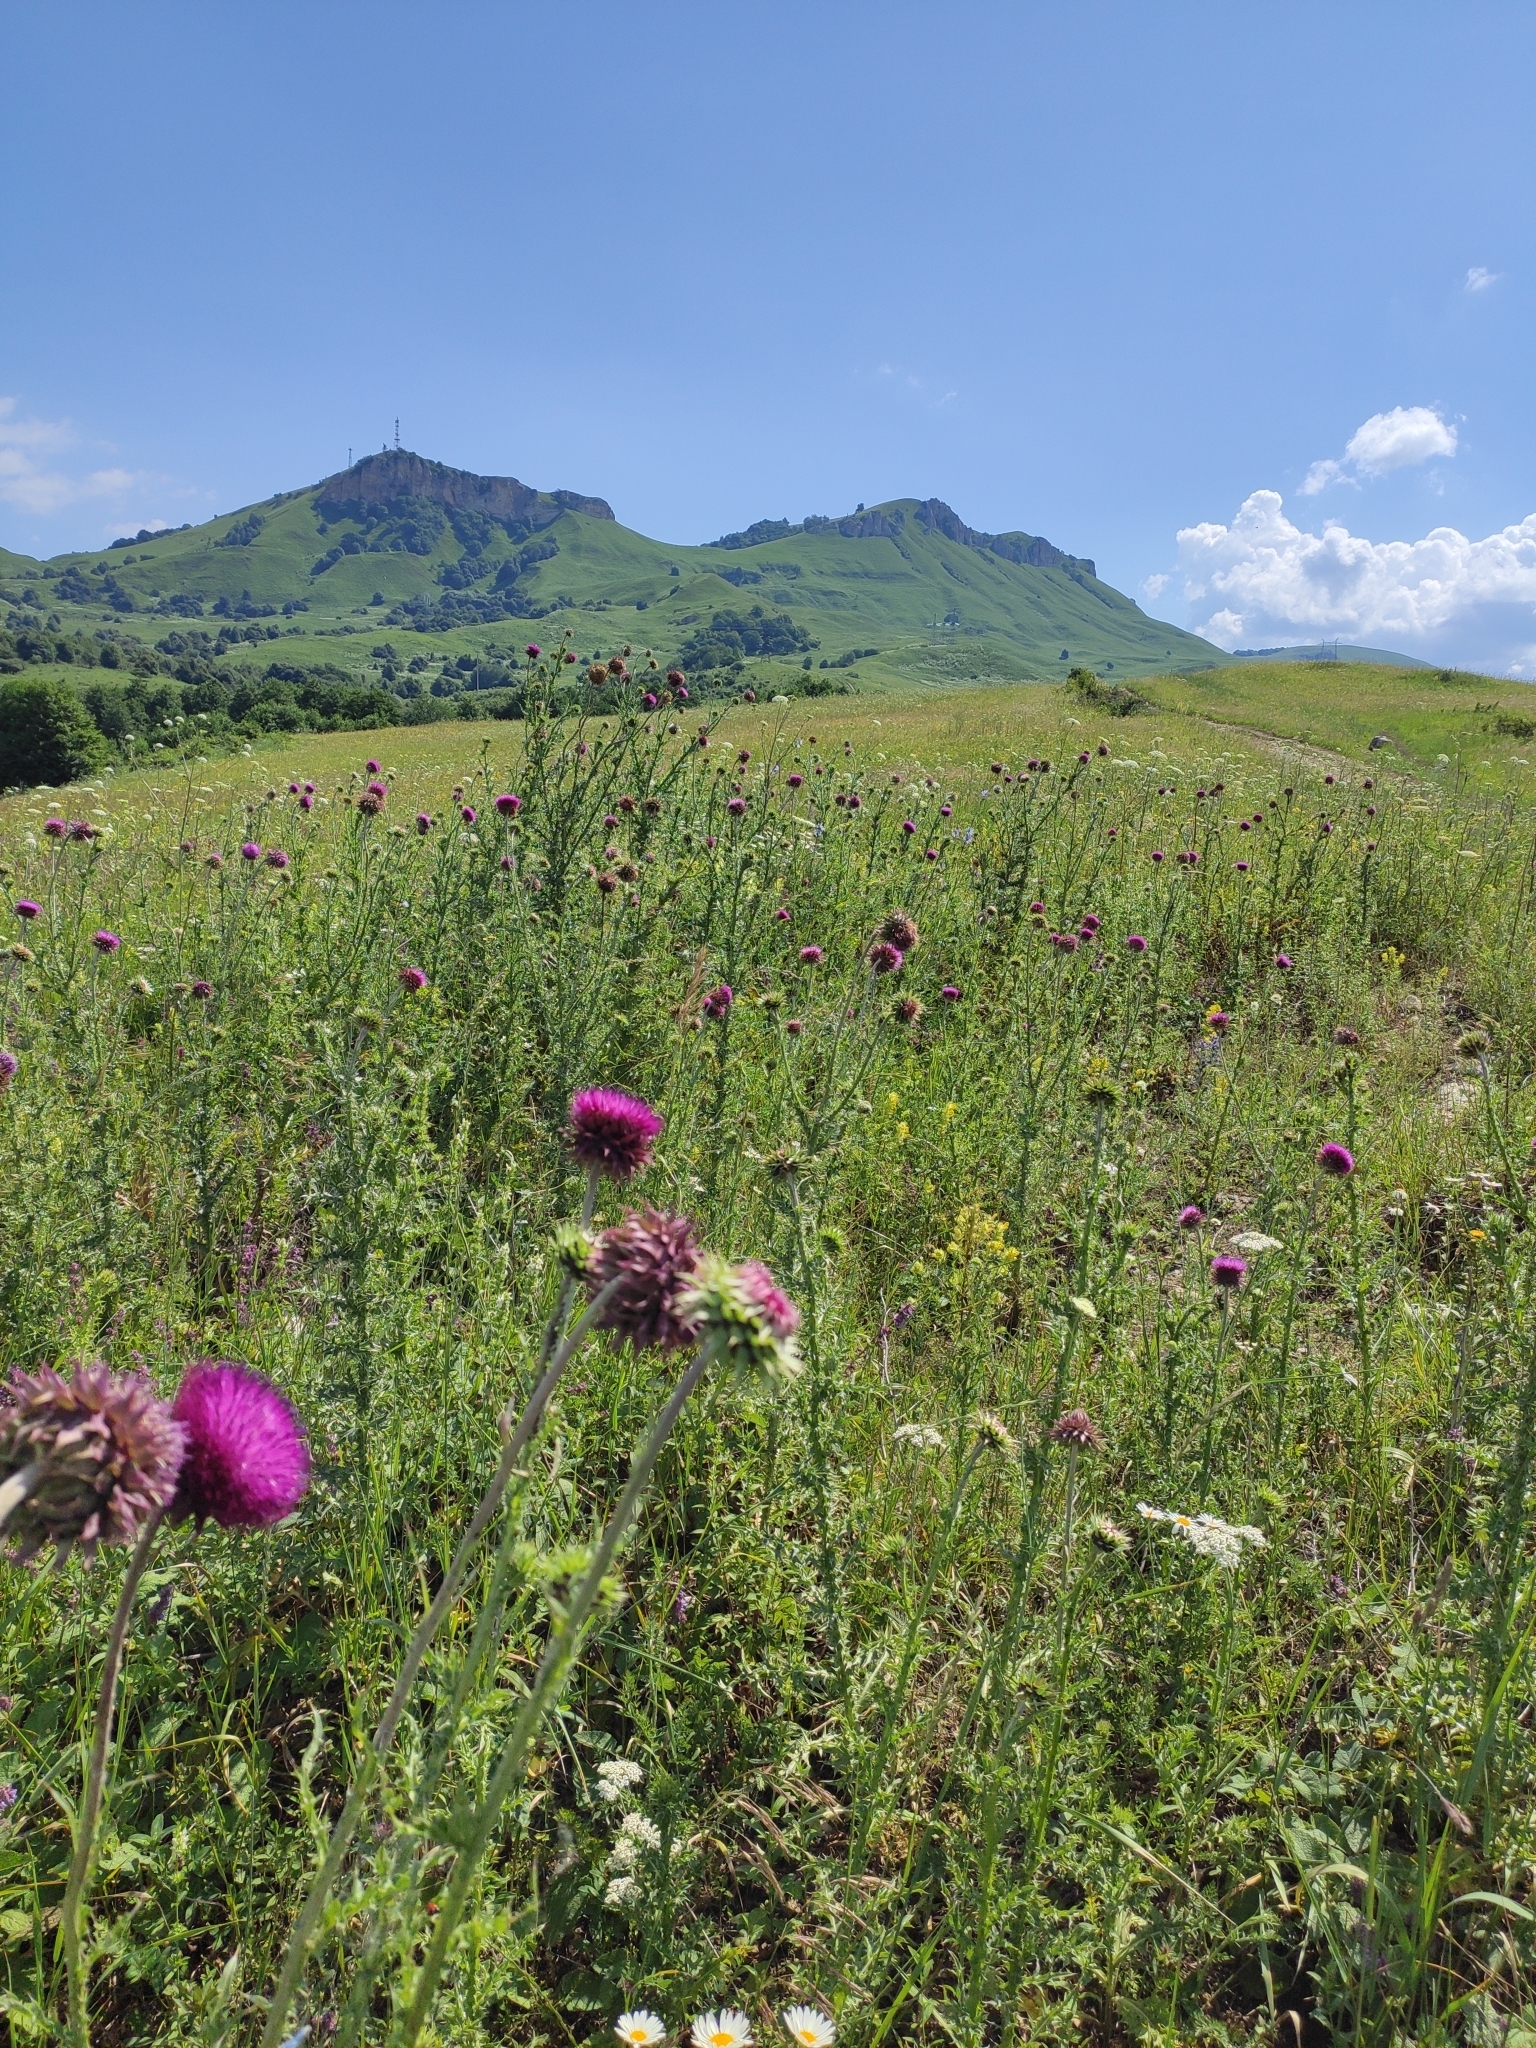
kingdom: Plantae
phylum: Tracheophyta
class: Magnoliopsida
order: Asterales
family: Asteraceae
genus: Carduus
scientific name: Carduus nutans
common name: Musk thistle
